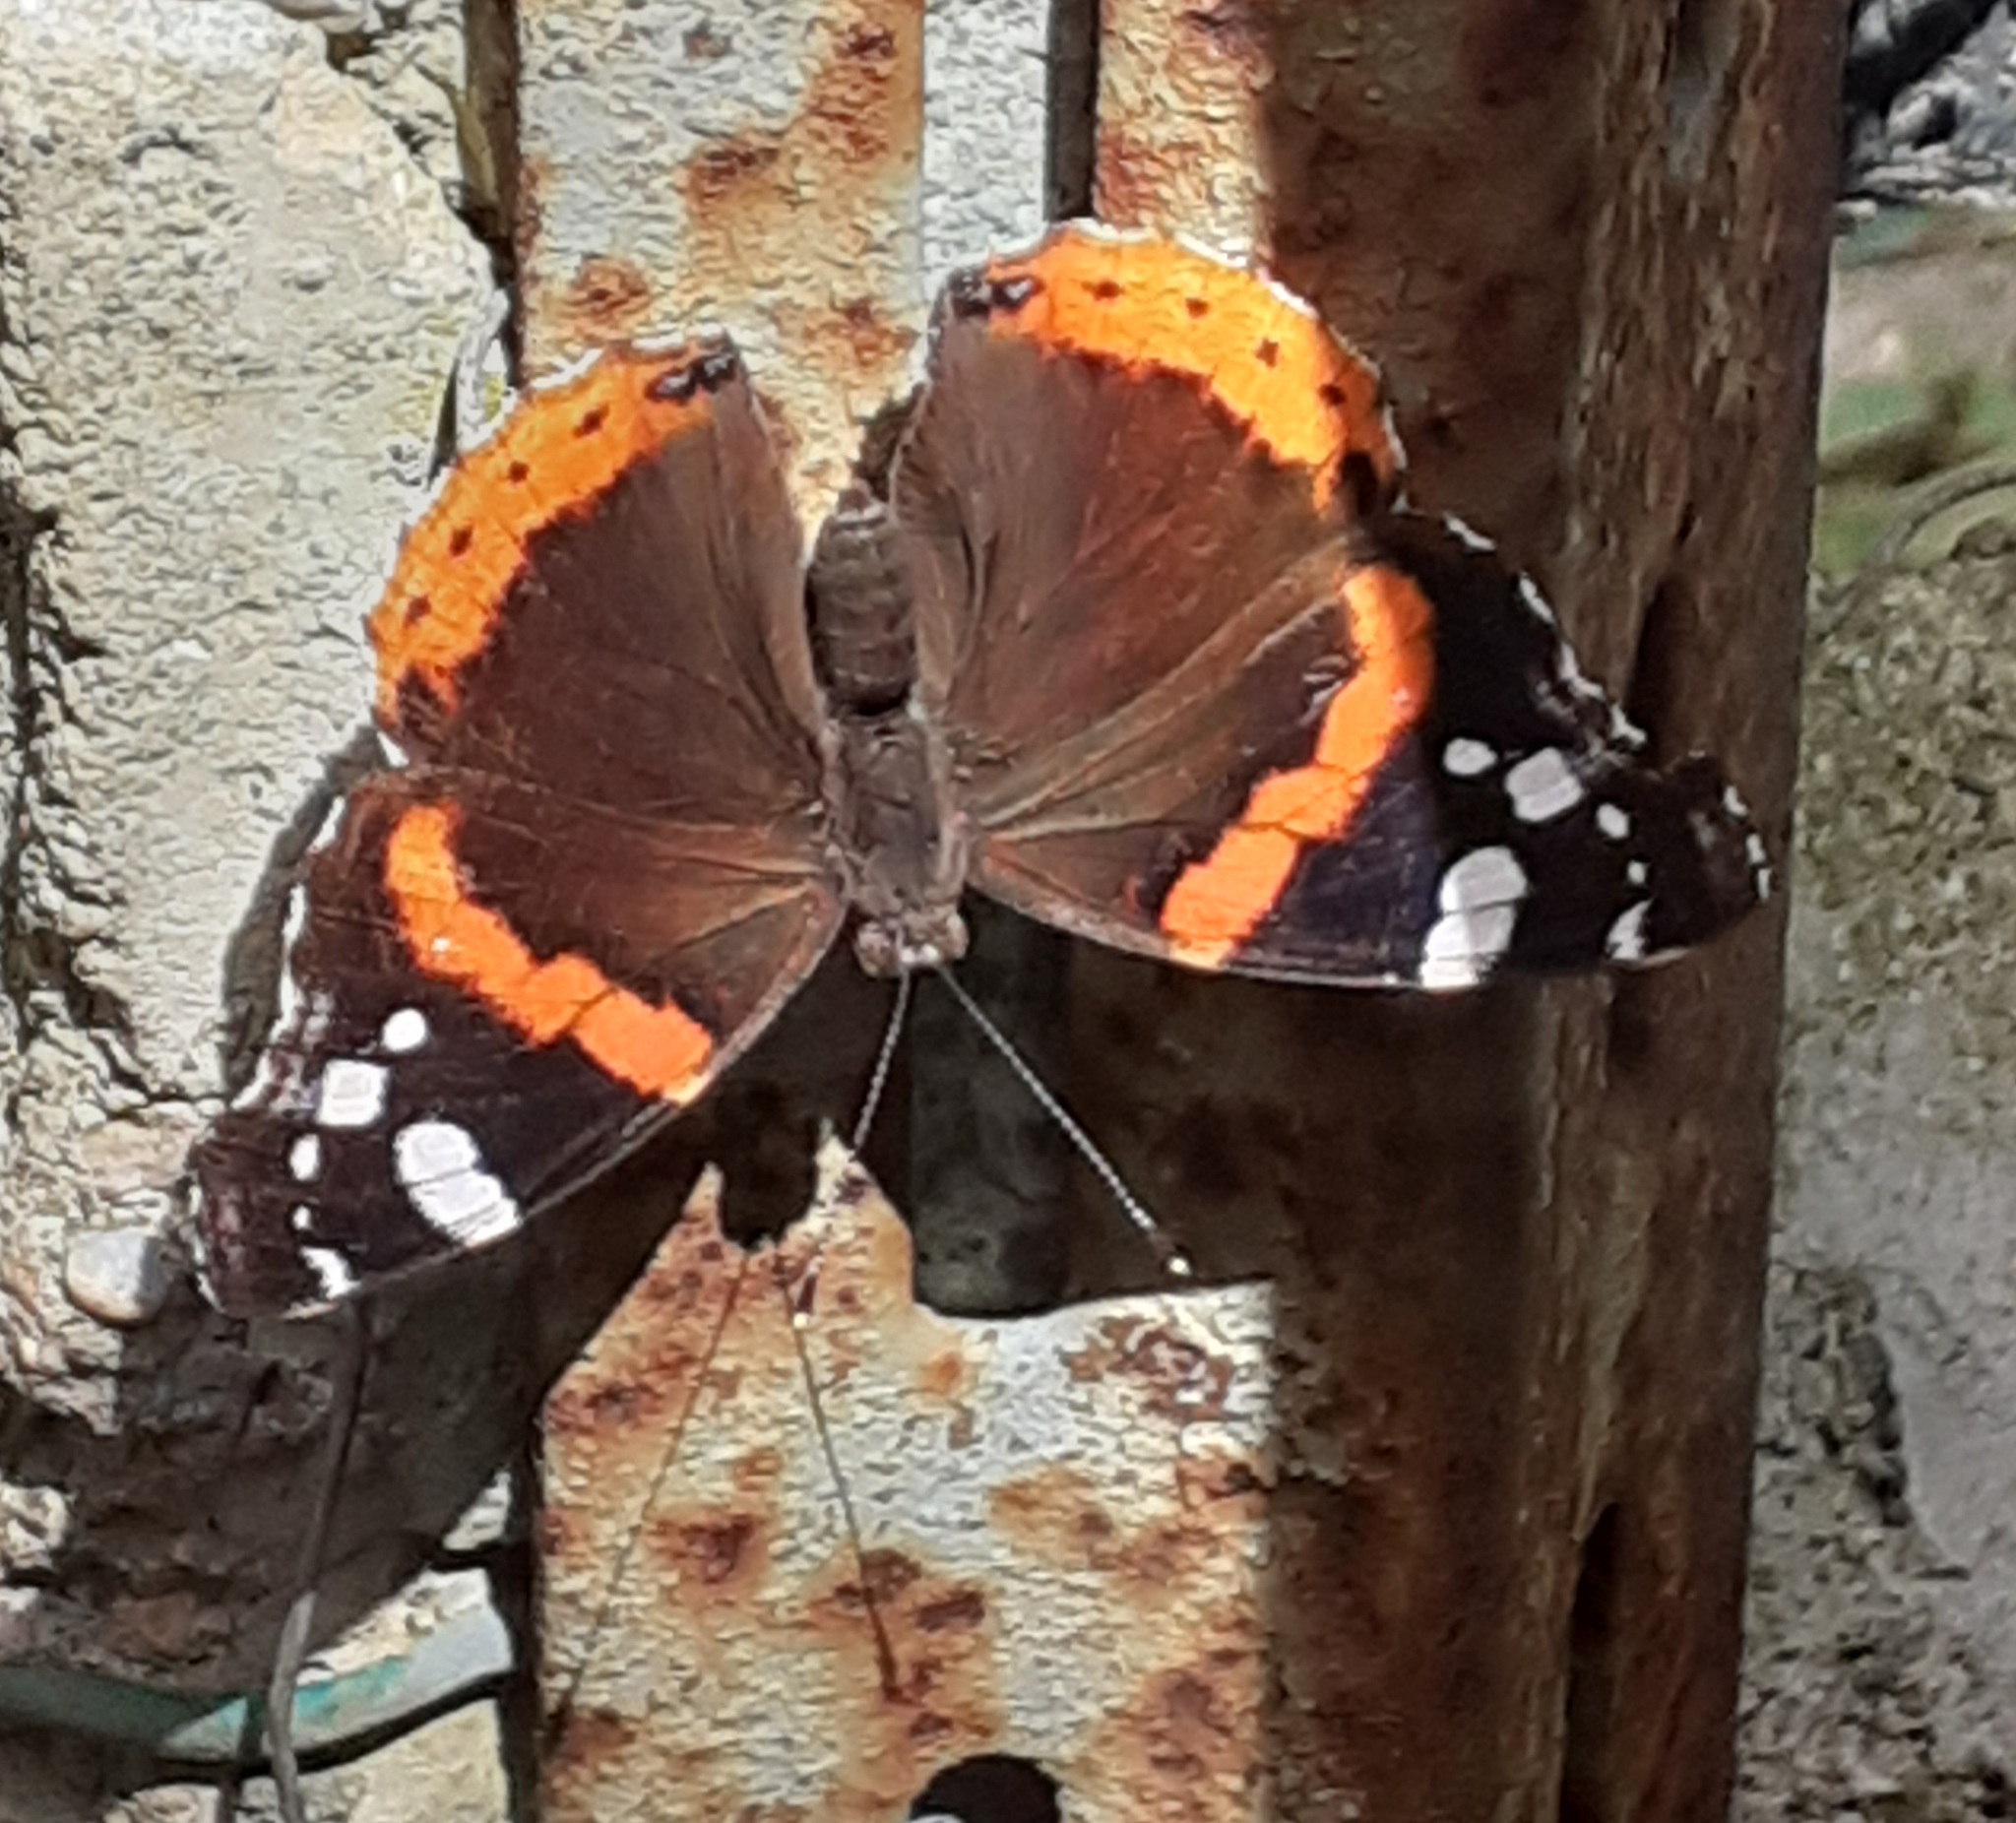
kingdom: Animalia
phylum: Arthropoda
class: Insecta
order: Lepidoptera
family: Nymphalidae
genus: Vanessa
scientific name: Vanessa atalanta
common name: Red admiral
